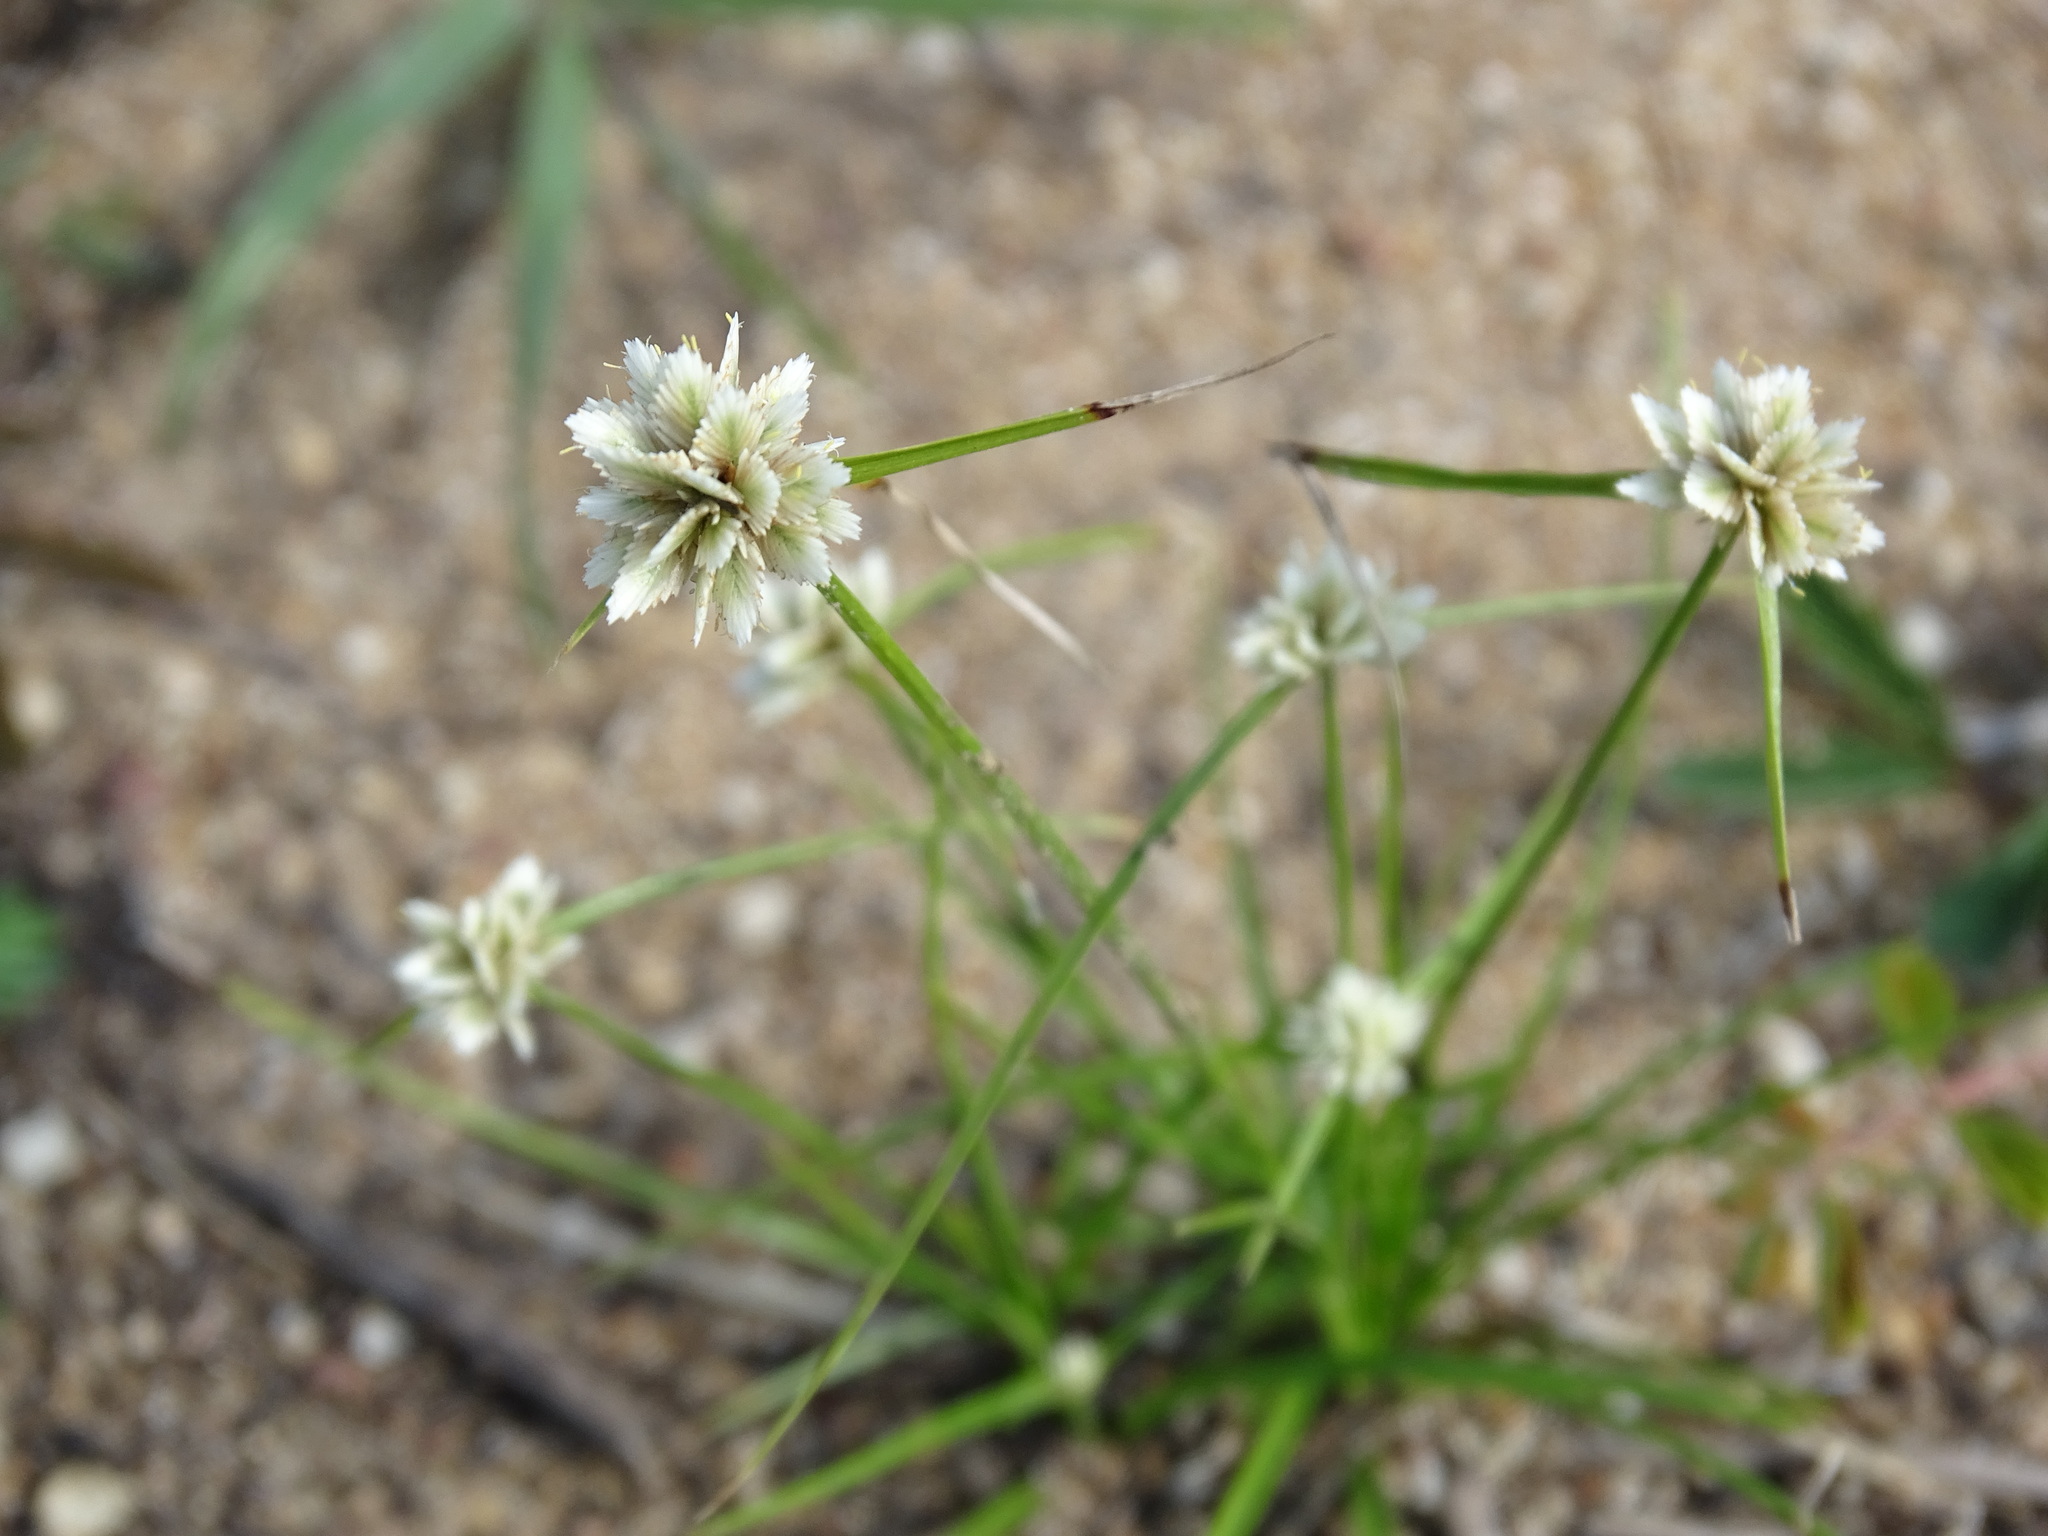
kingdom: Plantae
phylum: Tracheophyta
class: Liliopsida
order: Poales
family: Cyperaceae
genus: Cyperus
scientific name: Cyperus seslerioides
